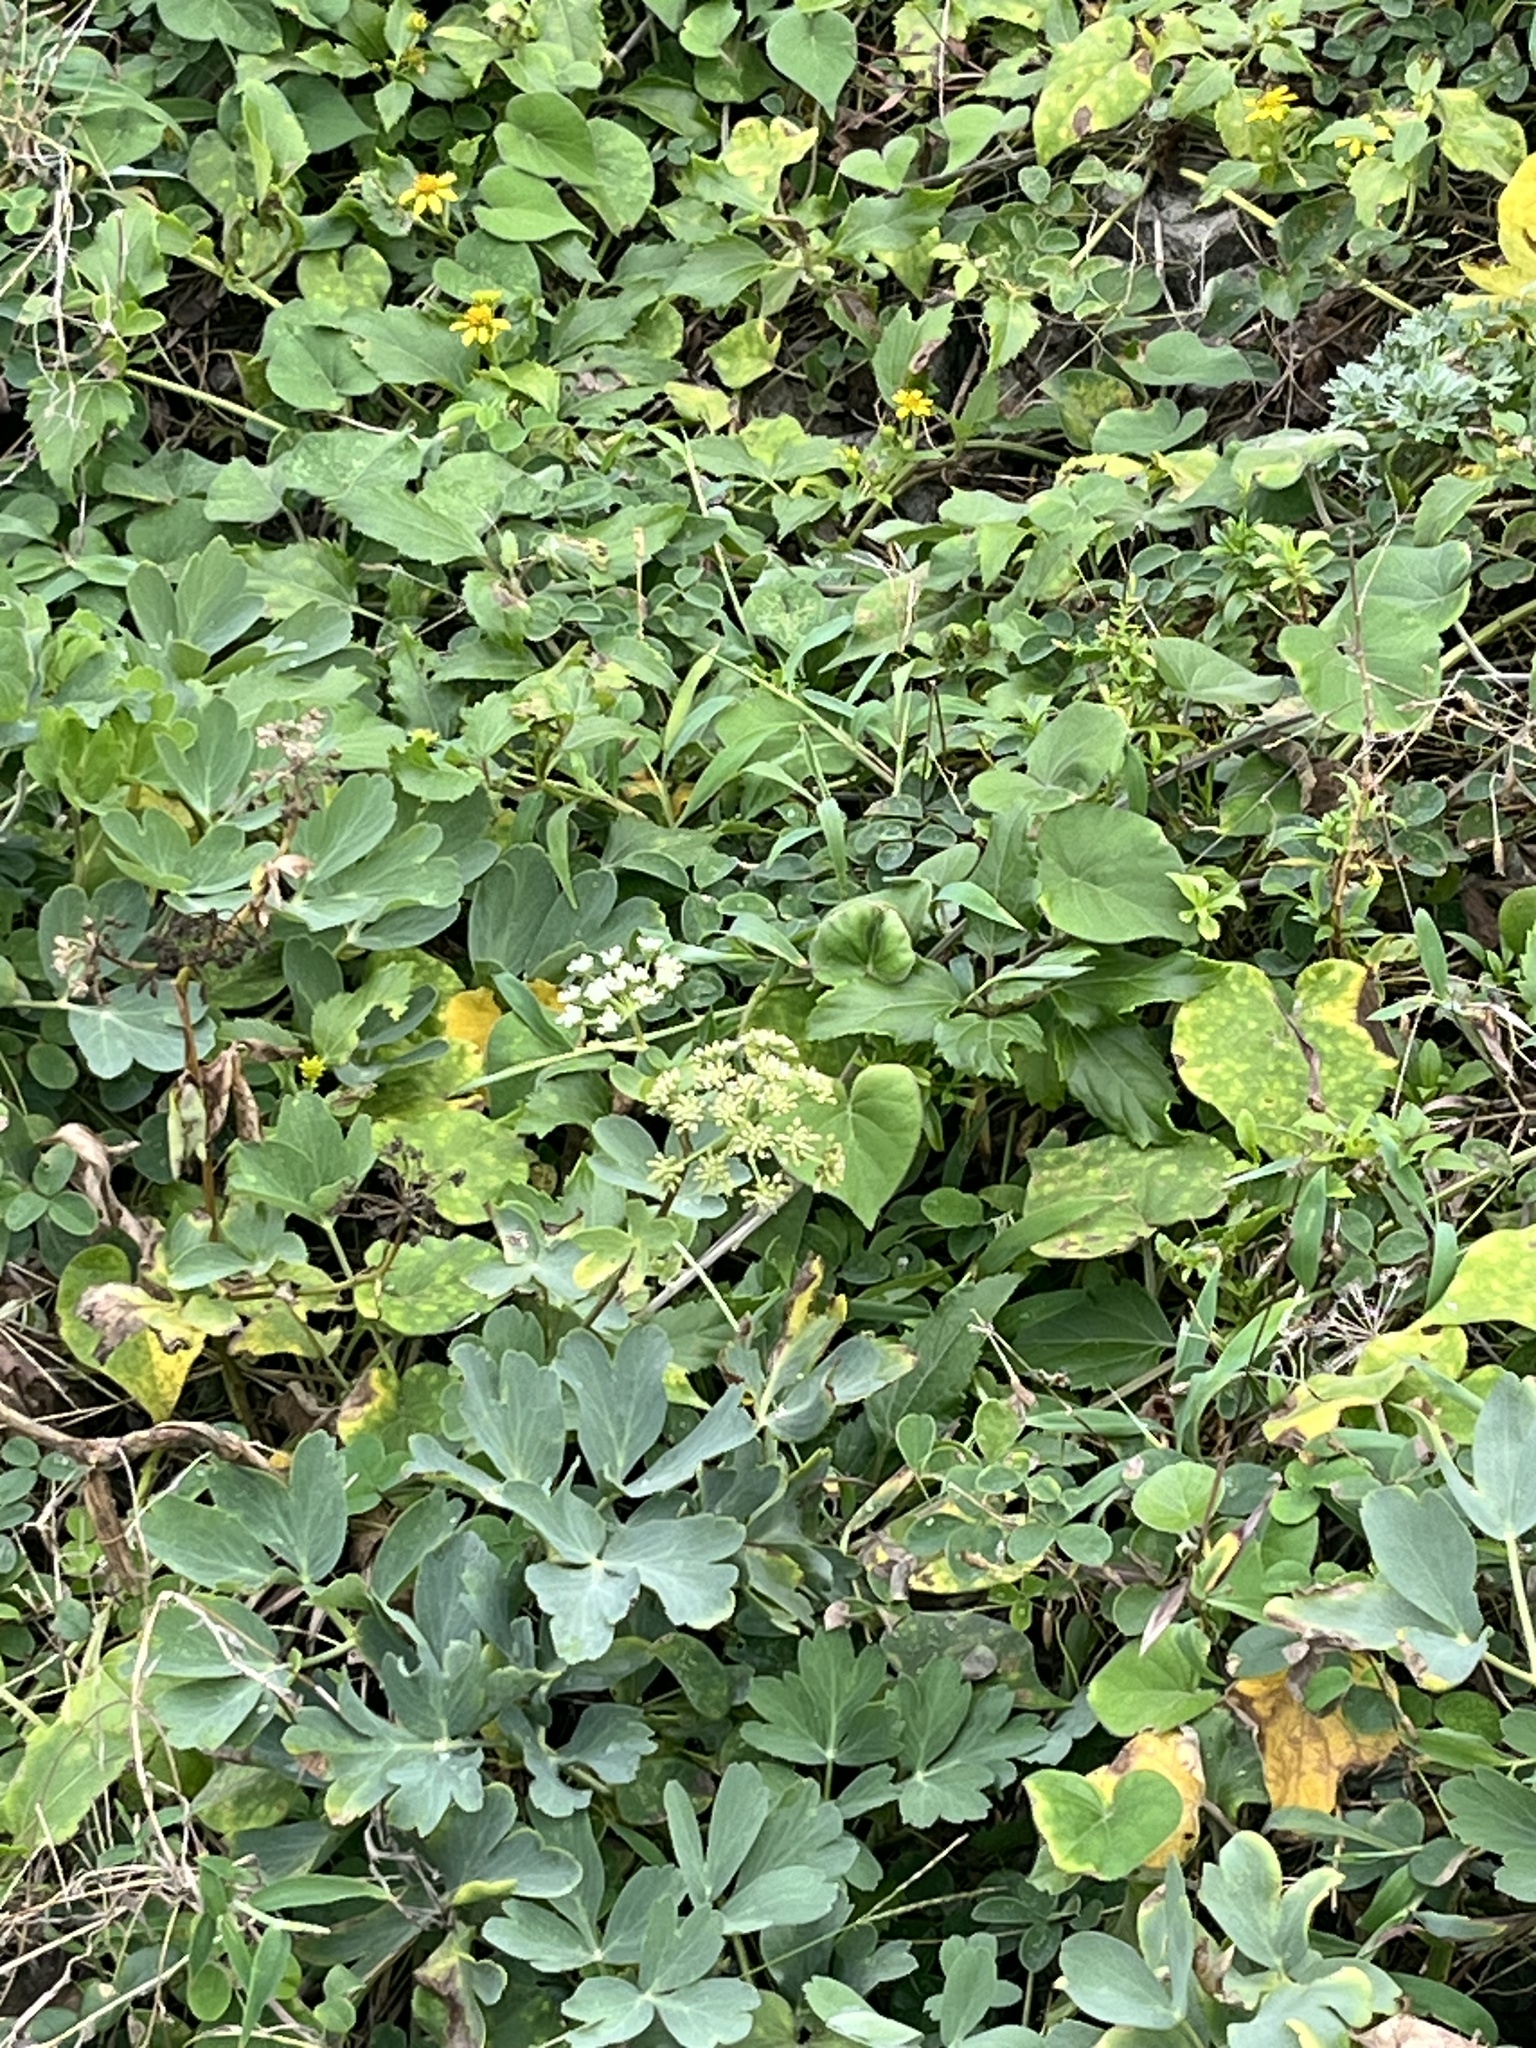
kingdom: Plantae
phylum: Tracheophyta
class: Magnoliopsida
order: Apiales
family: Apiaceae
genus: Peucedanum
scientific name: Peucedanum japonicum
